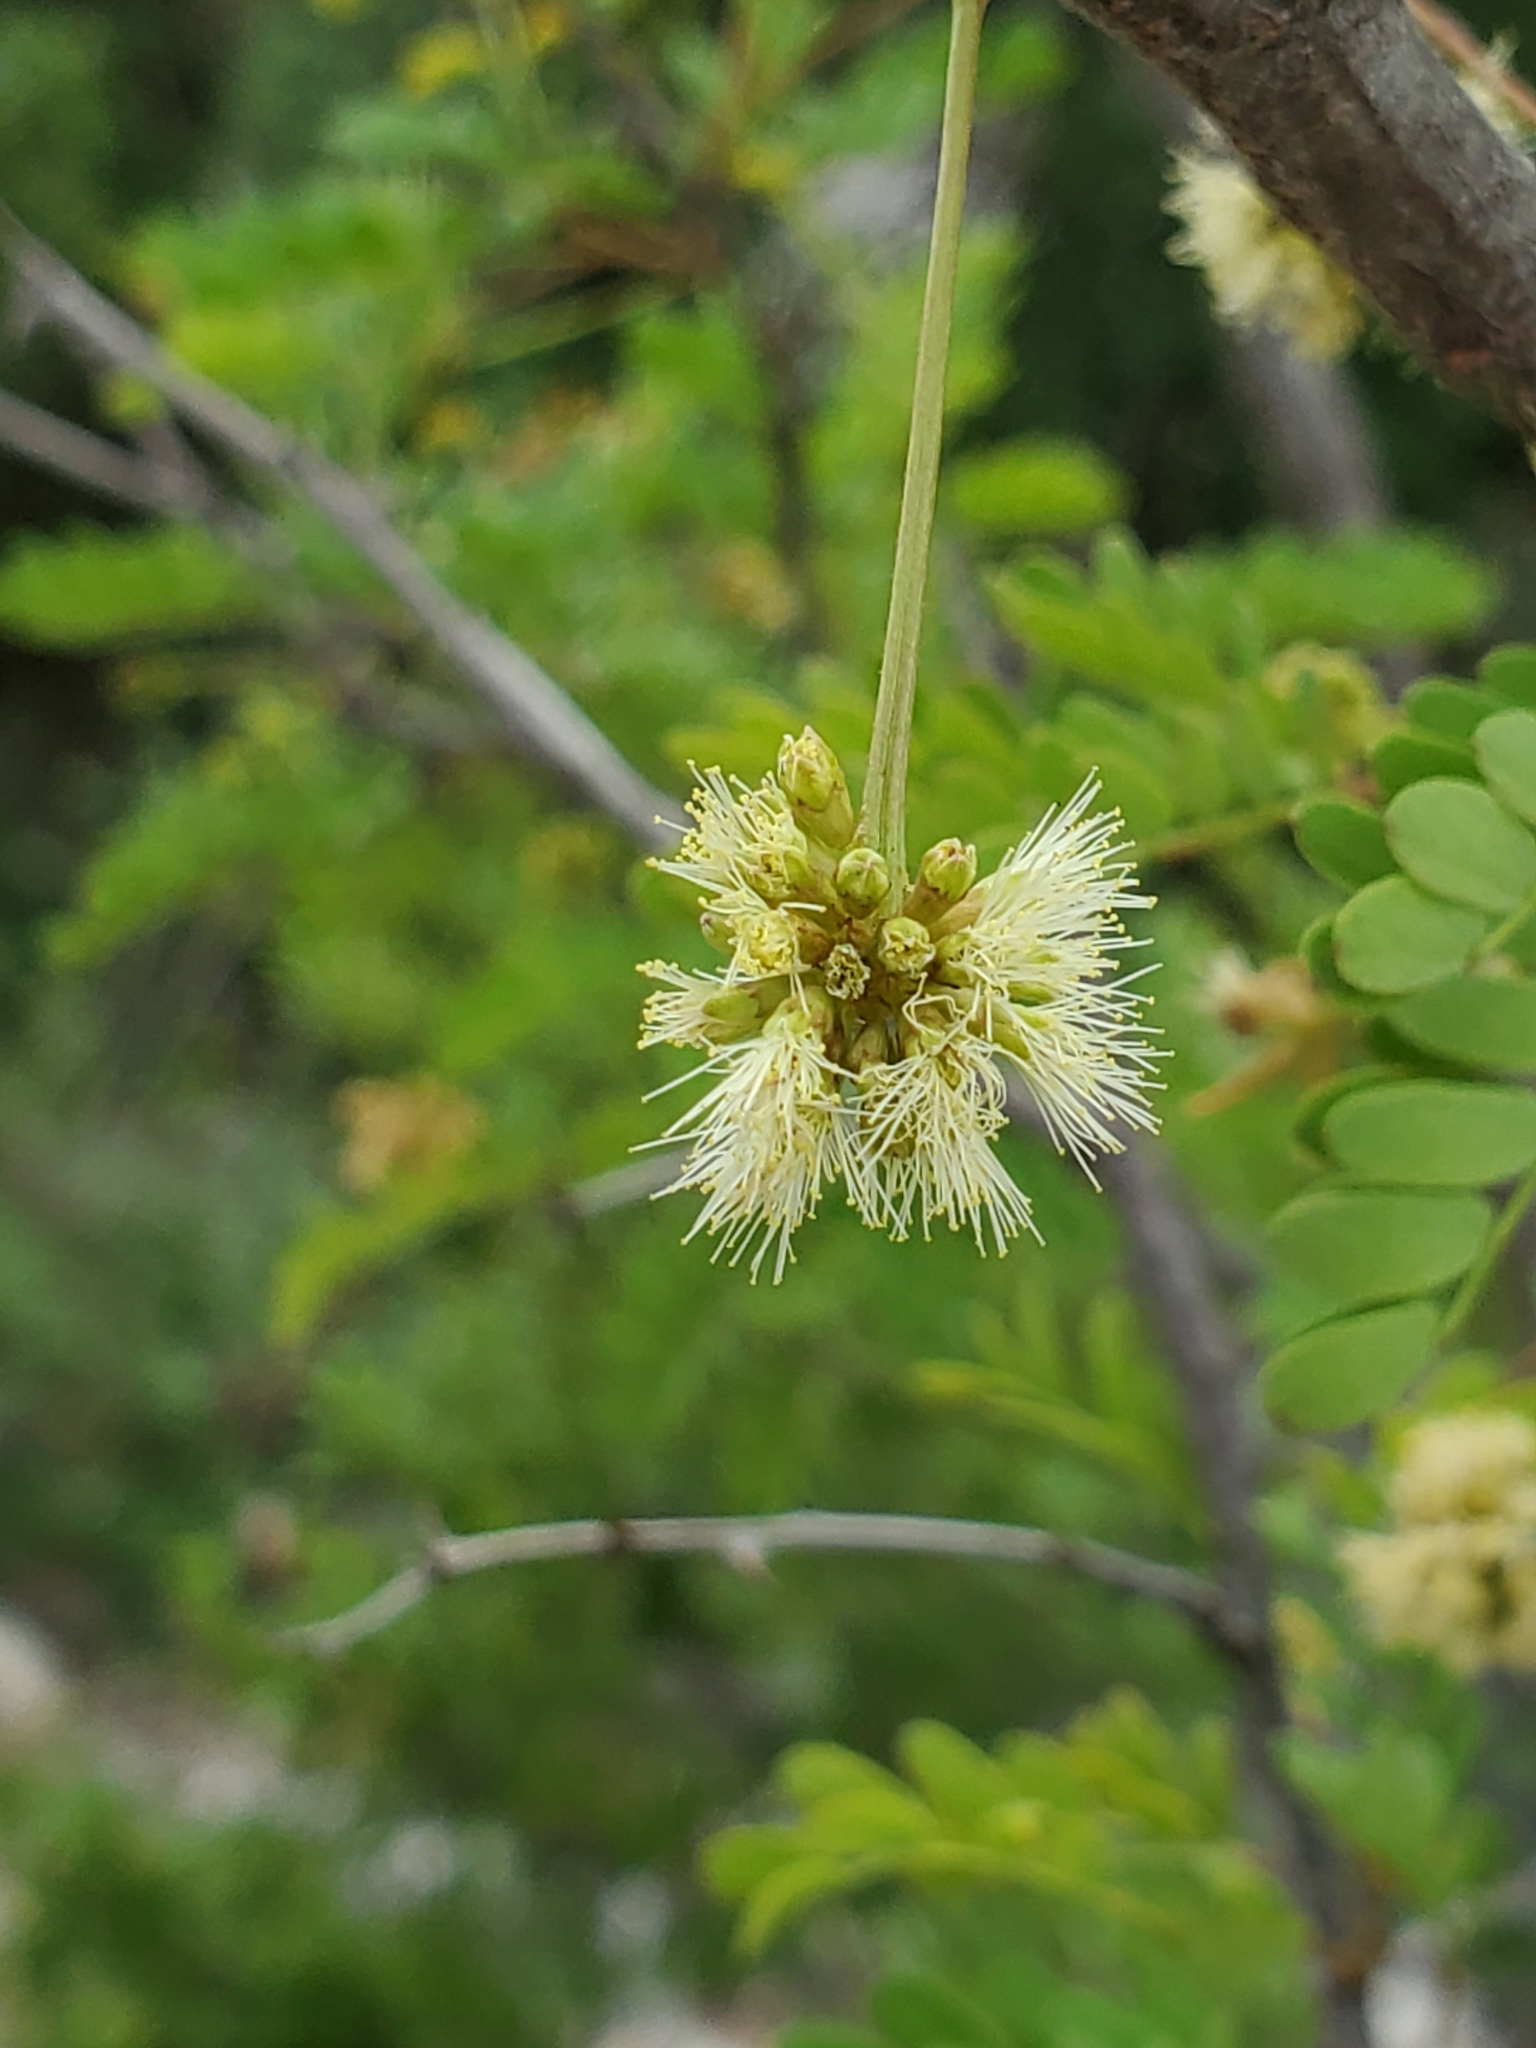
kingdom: Plantae
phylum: Tracheophyta
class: Magnoliopsida
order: Fabales
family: Fabaceae
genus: Senegalia
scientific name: Senegalia roemeriana
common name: Roemer's acacia
